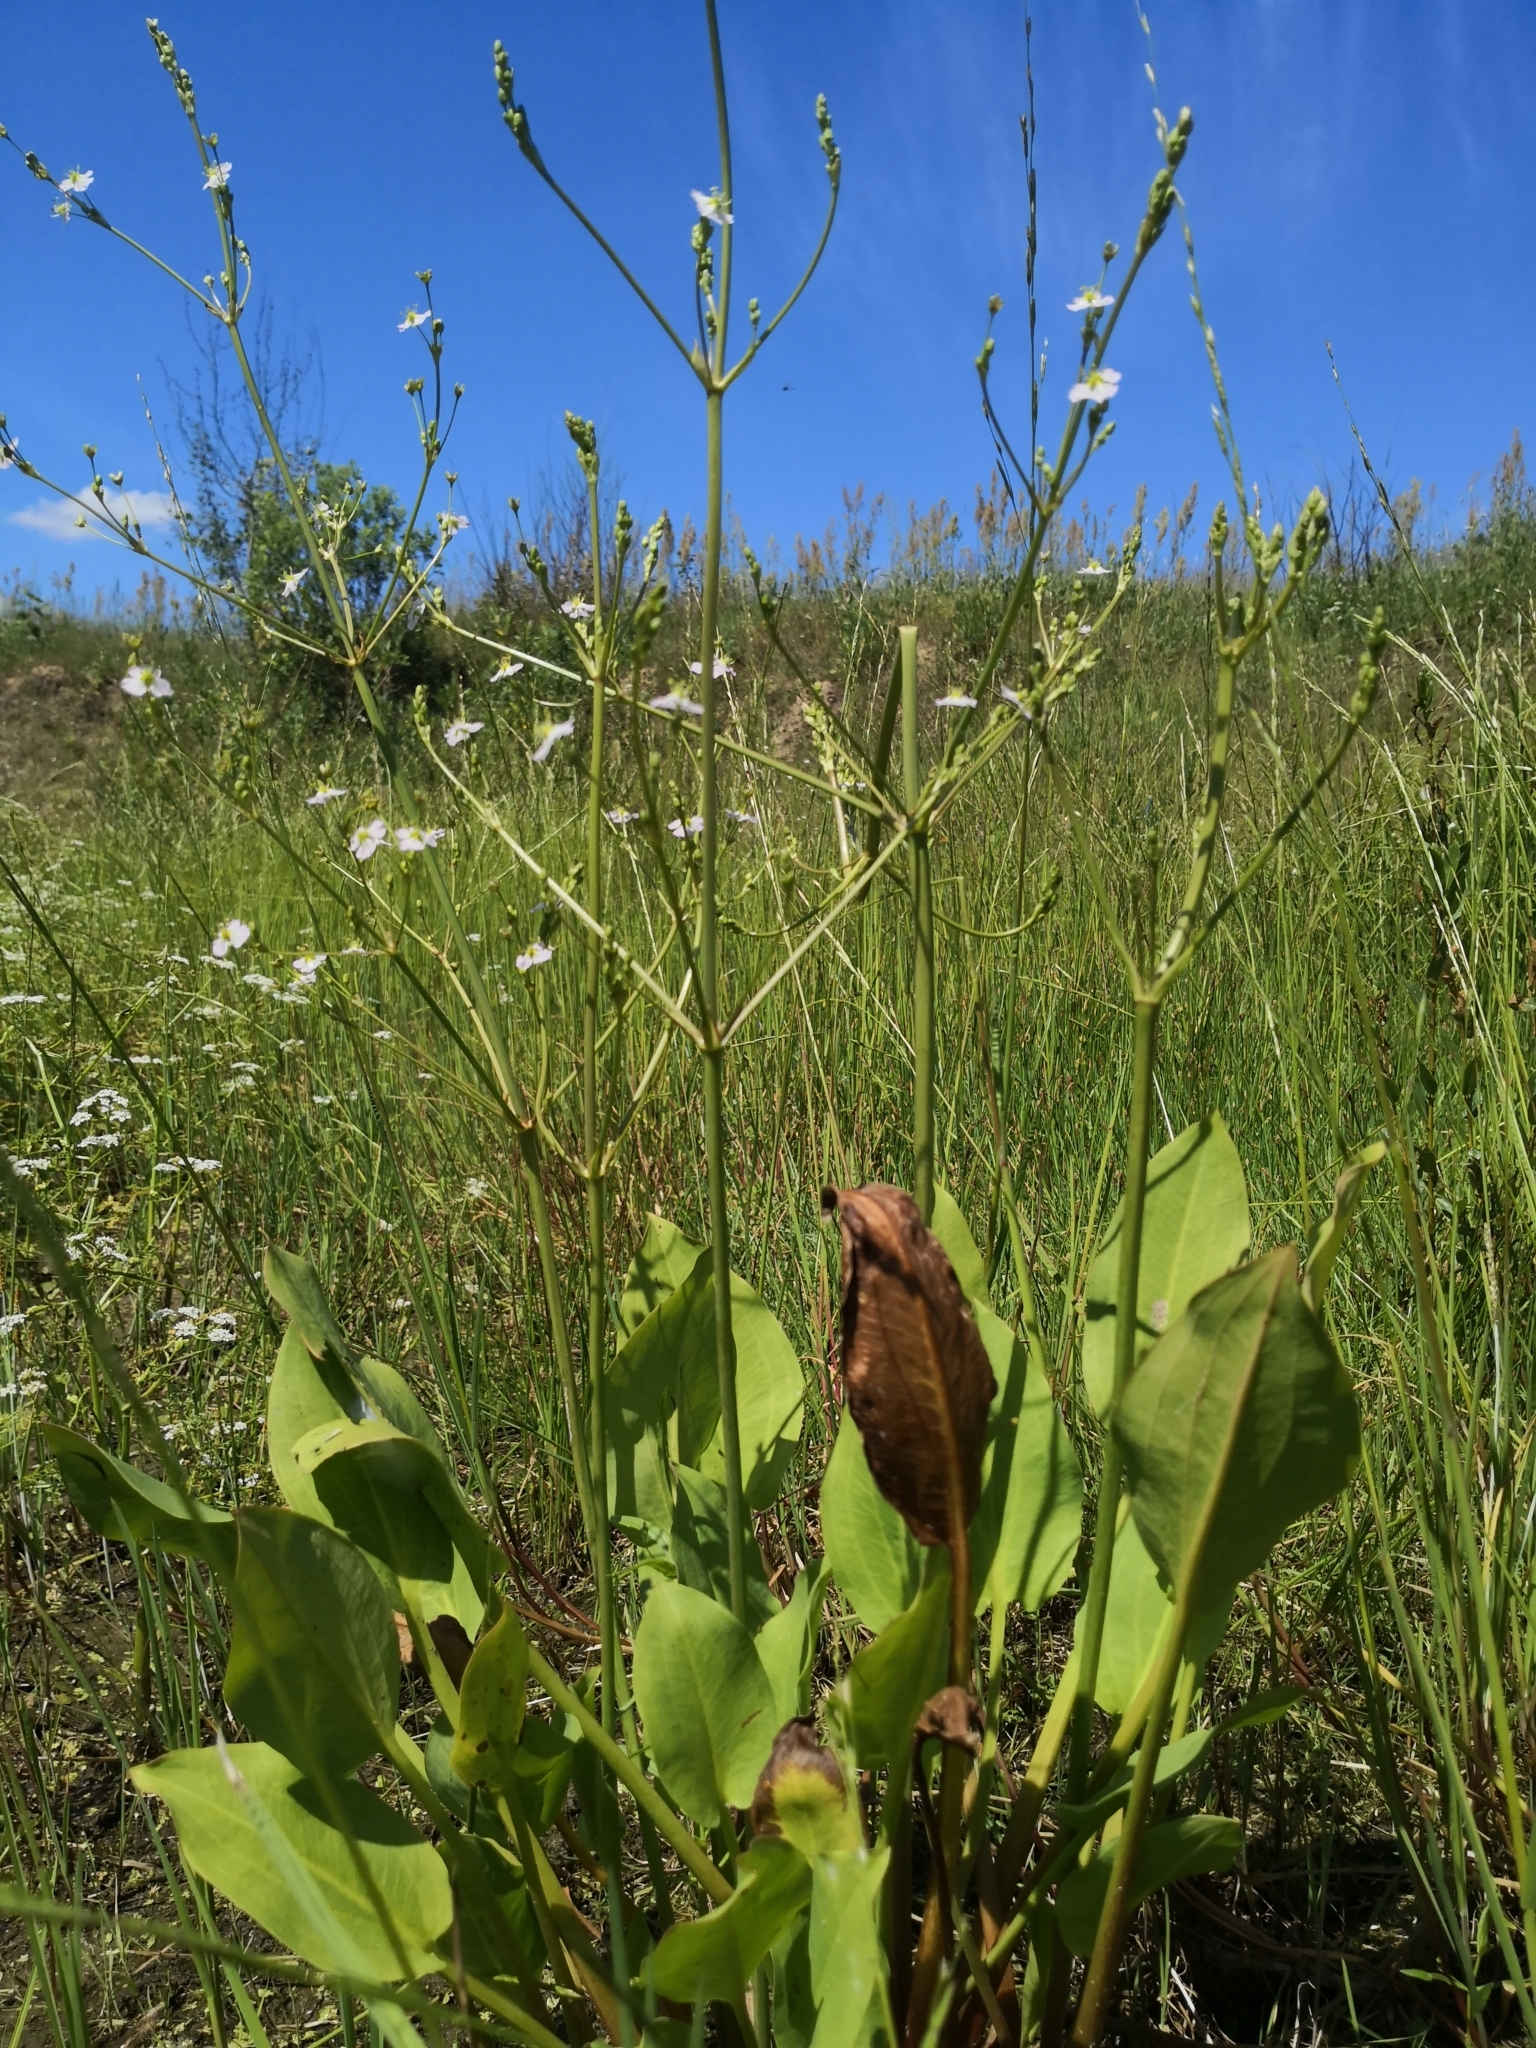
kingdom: Plantae
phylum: Tracheophyta
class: Liliopsida
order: Alismatales
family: Alismataceae
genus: Alisma
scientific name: Alisma plantago-aquatica
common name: Water-plantain
